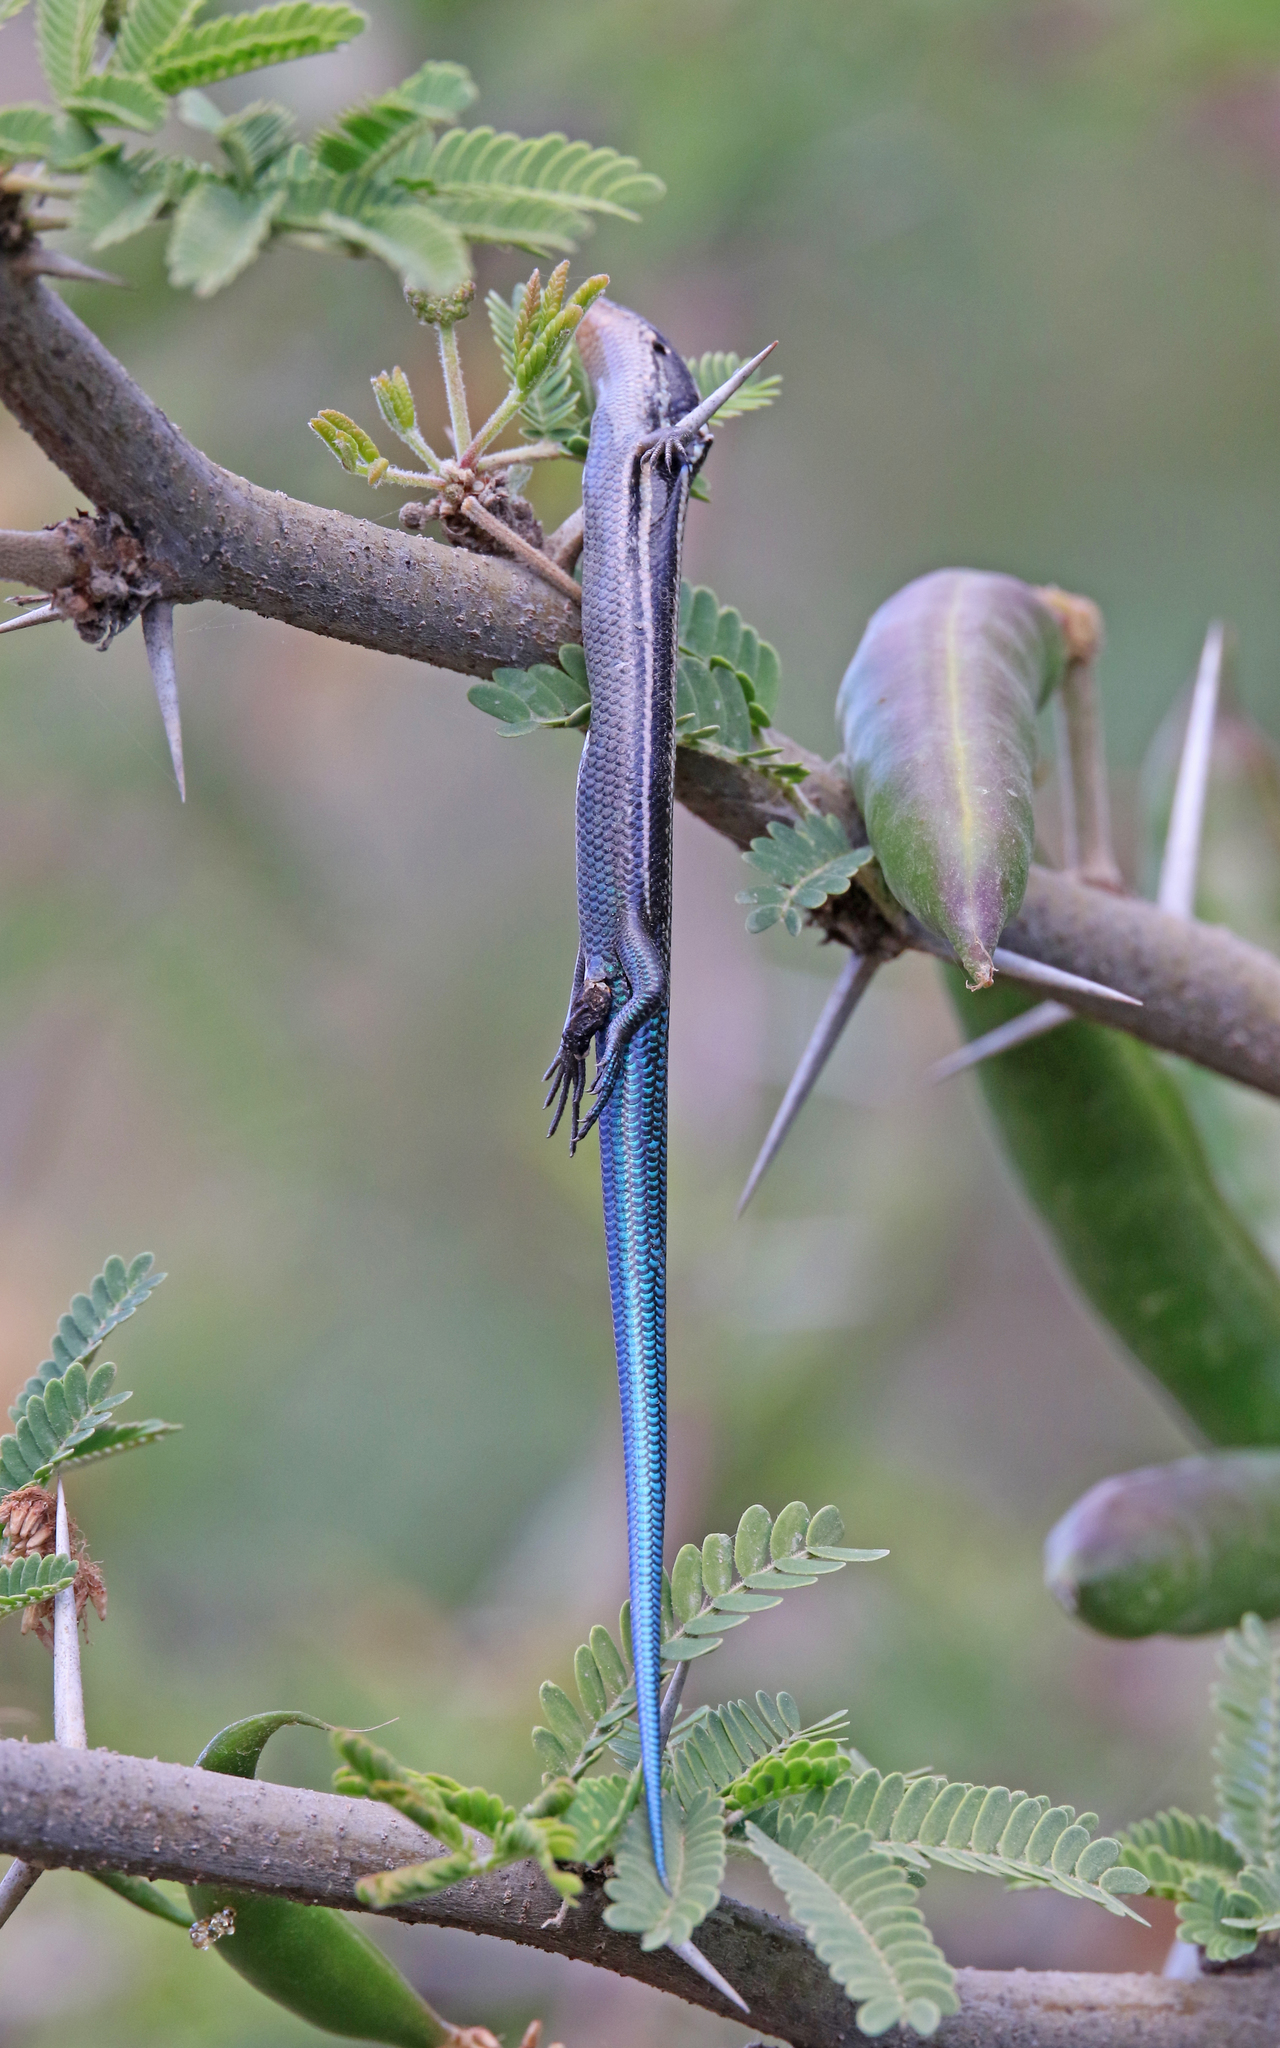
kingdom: Animalia
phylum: Chordata
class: Squamata
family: Scincidae
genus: Chalcides
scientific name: Chalcides sexlineatus
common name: Gran canaria skink
